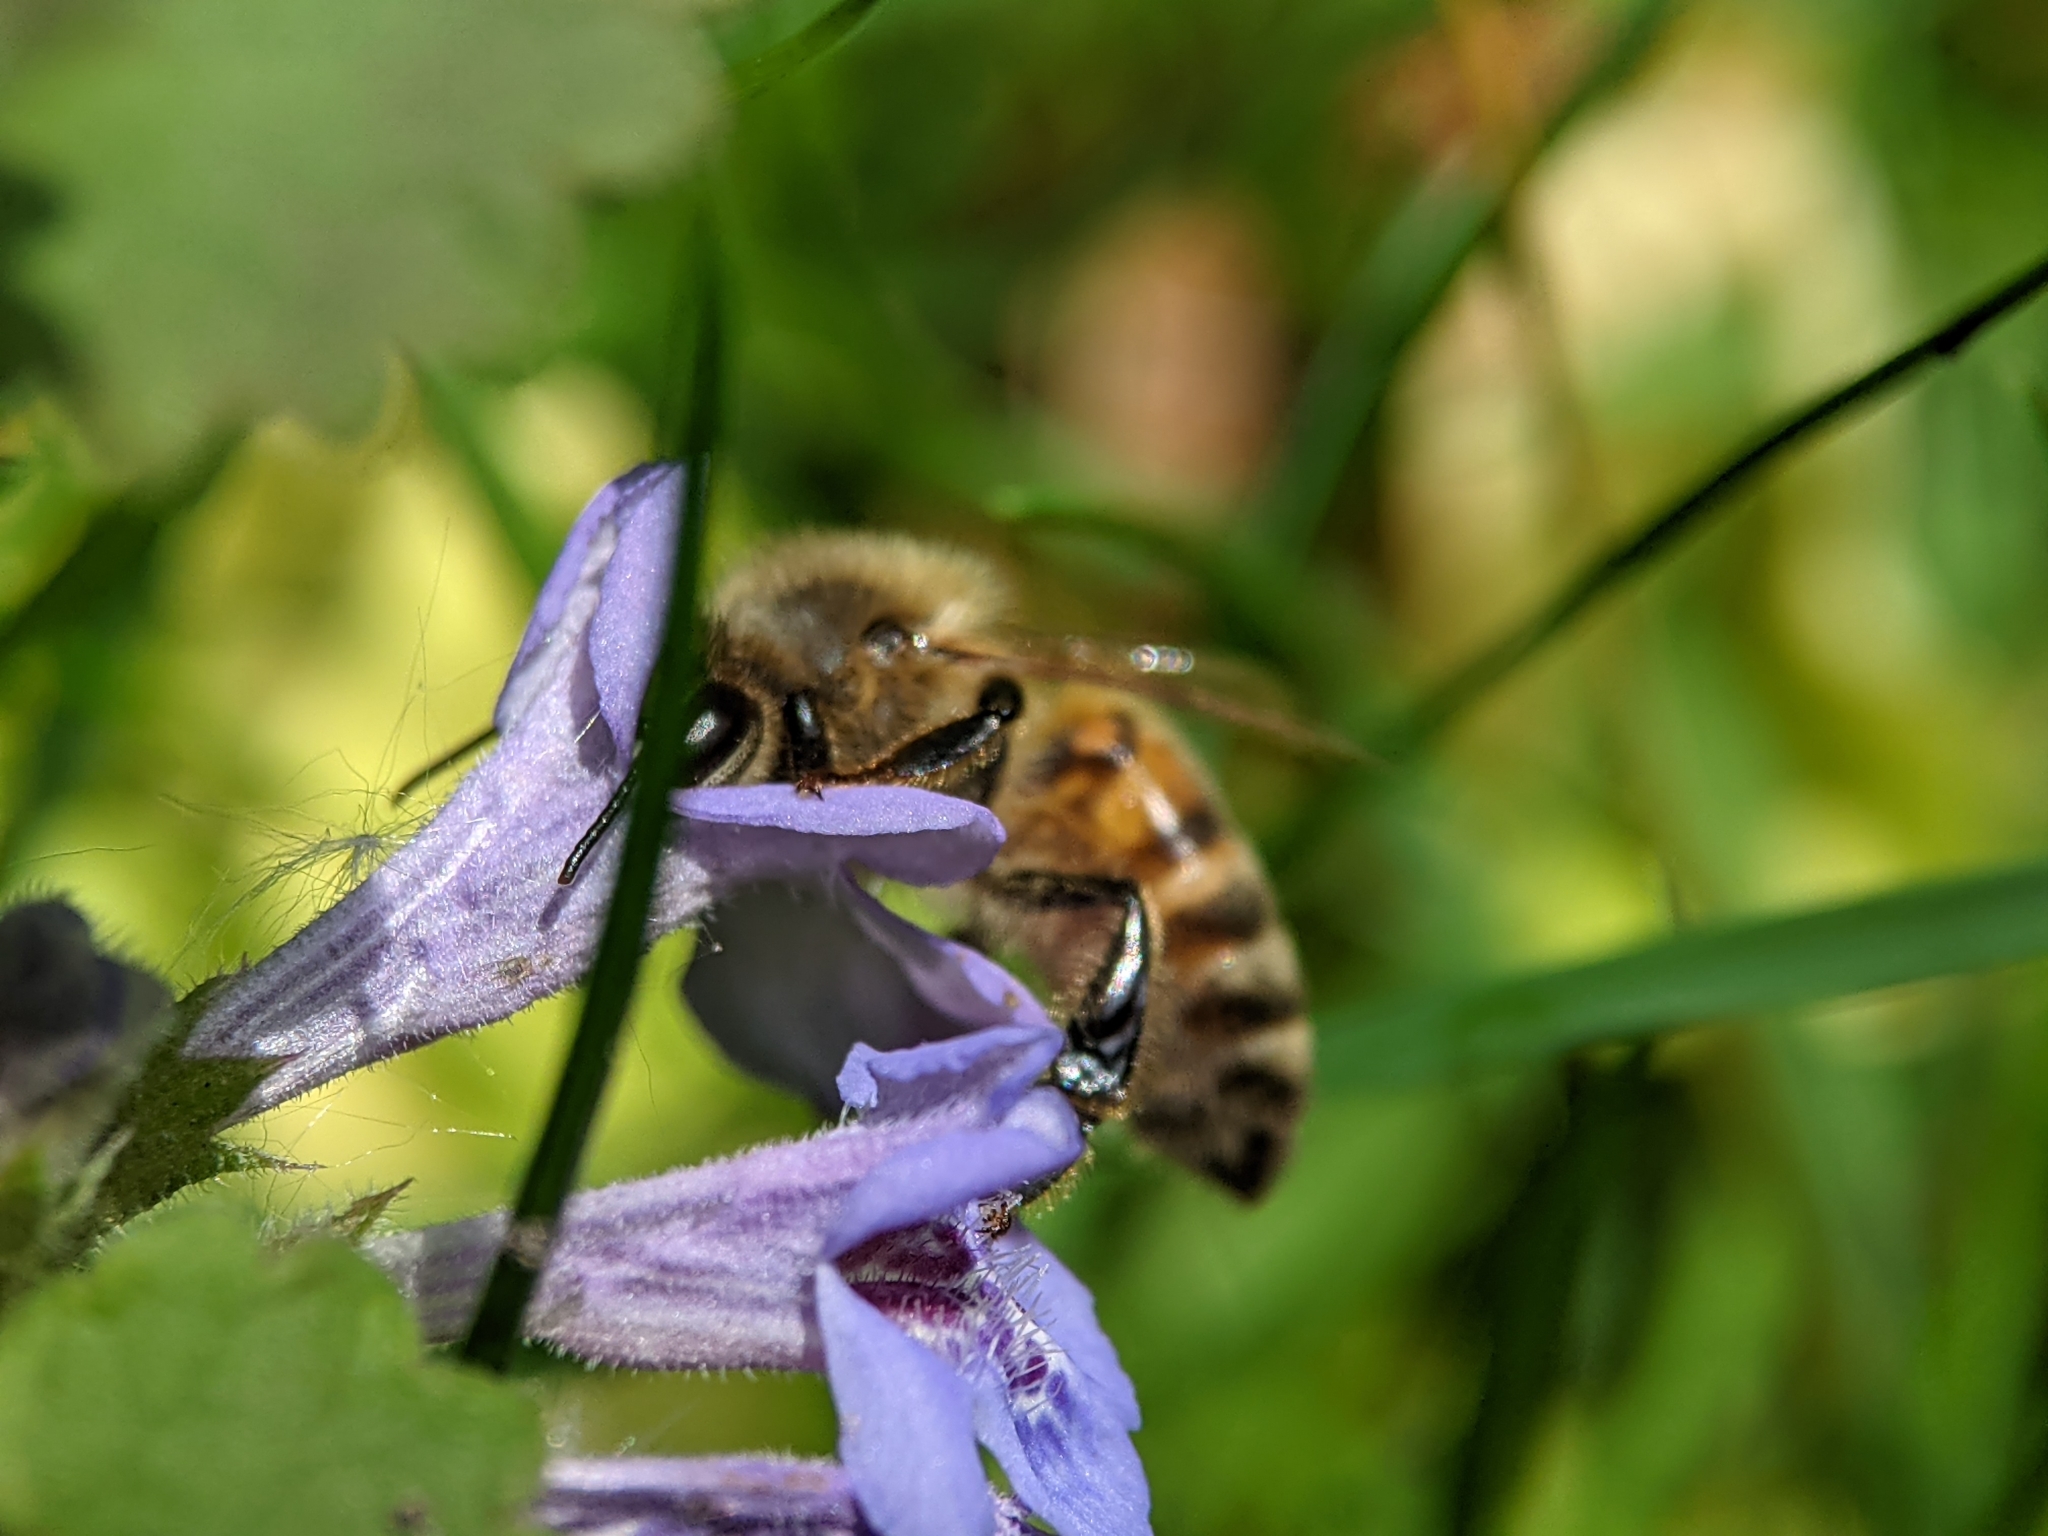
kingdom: Animalia
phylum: Arthropoda
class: Insecta
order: Hymenoptera
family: Apidae
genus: Apis
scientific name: Apis mellifera
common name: Honey bee
